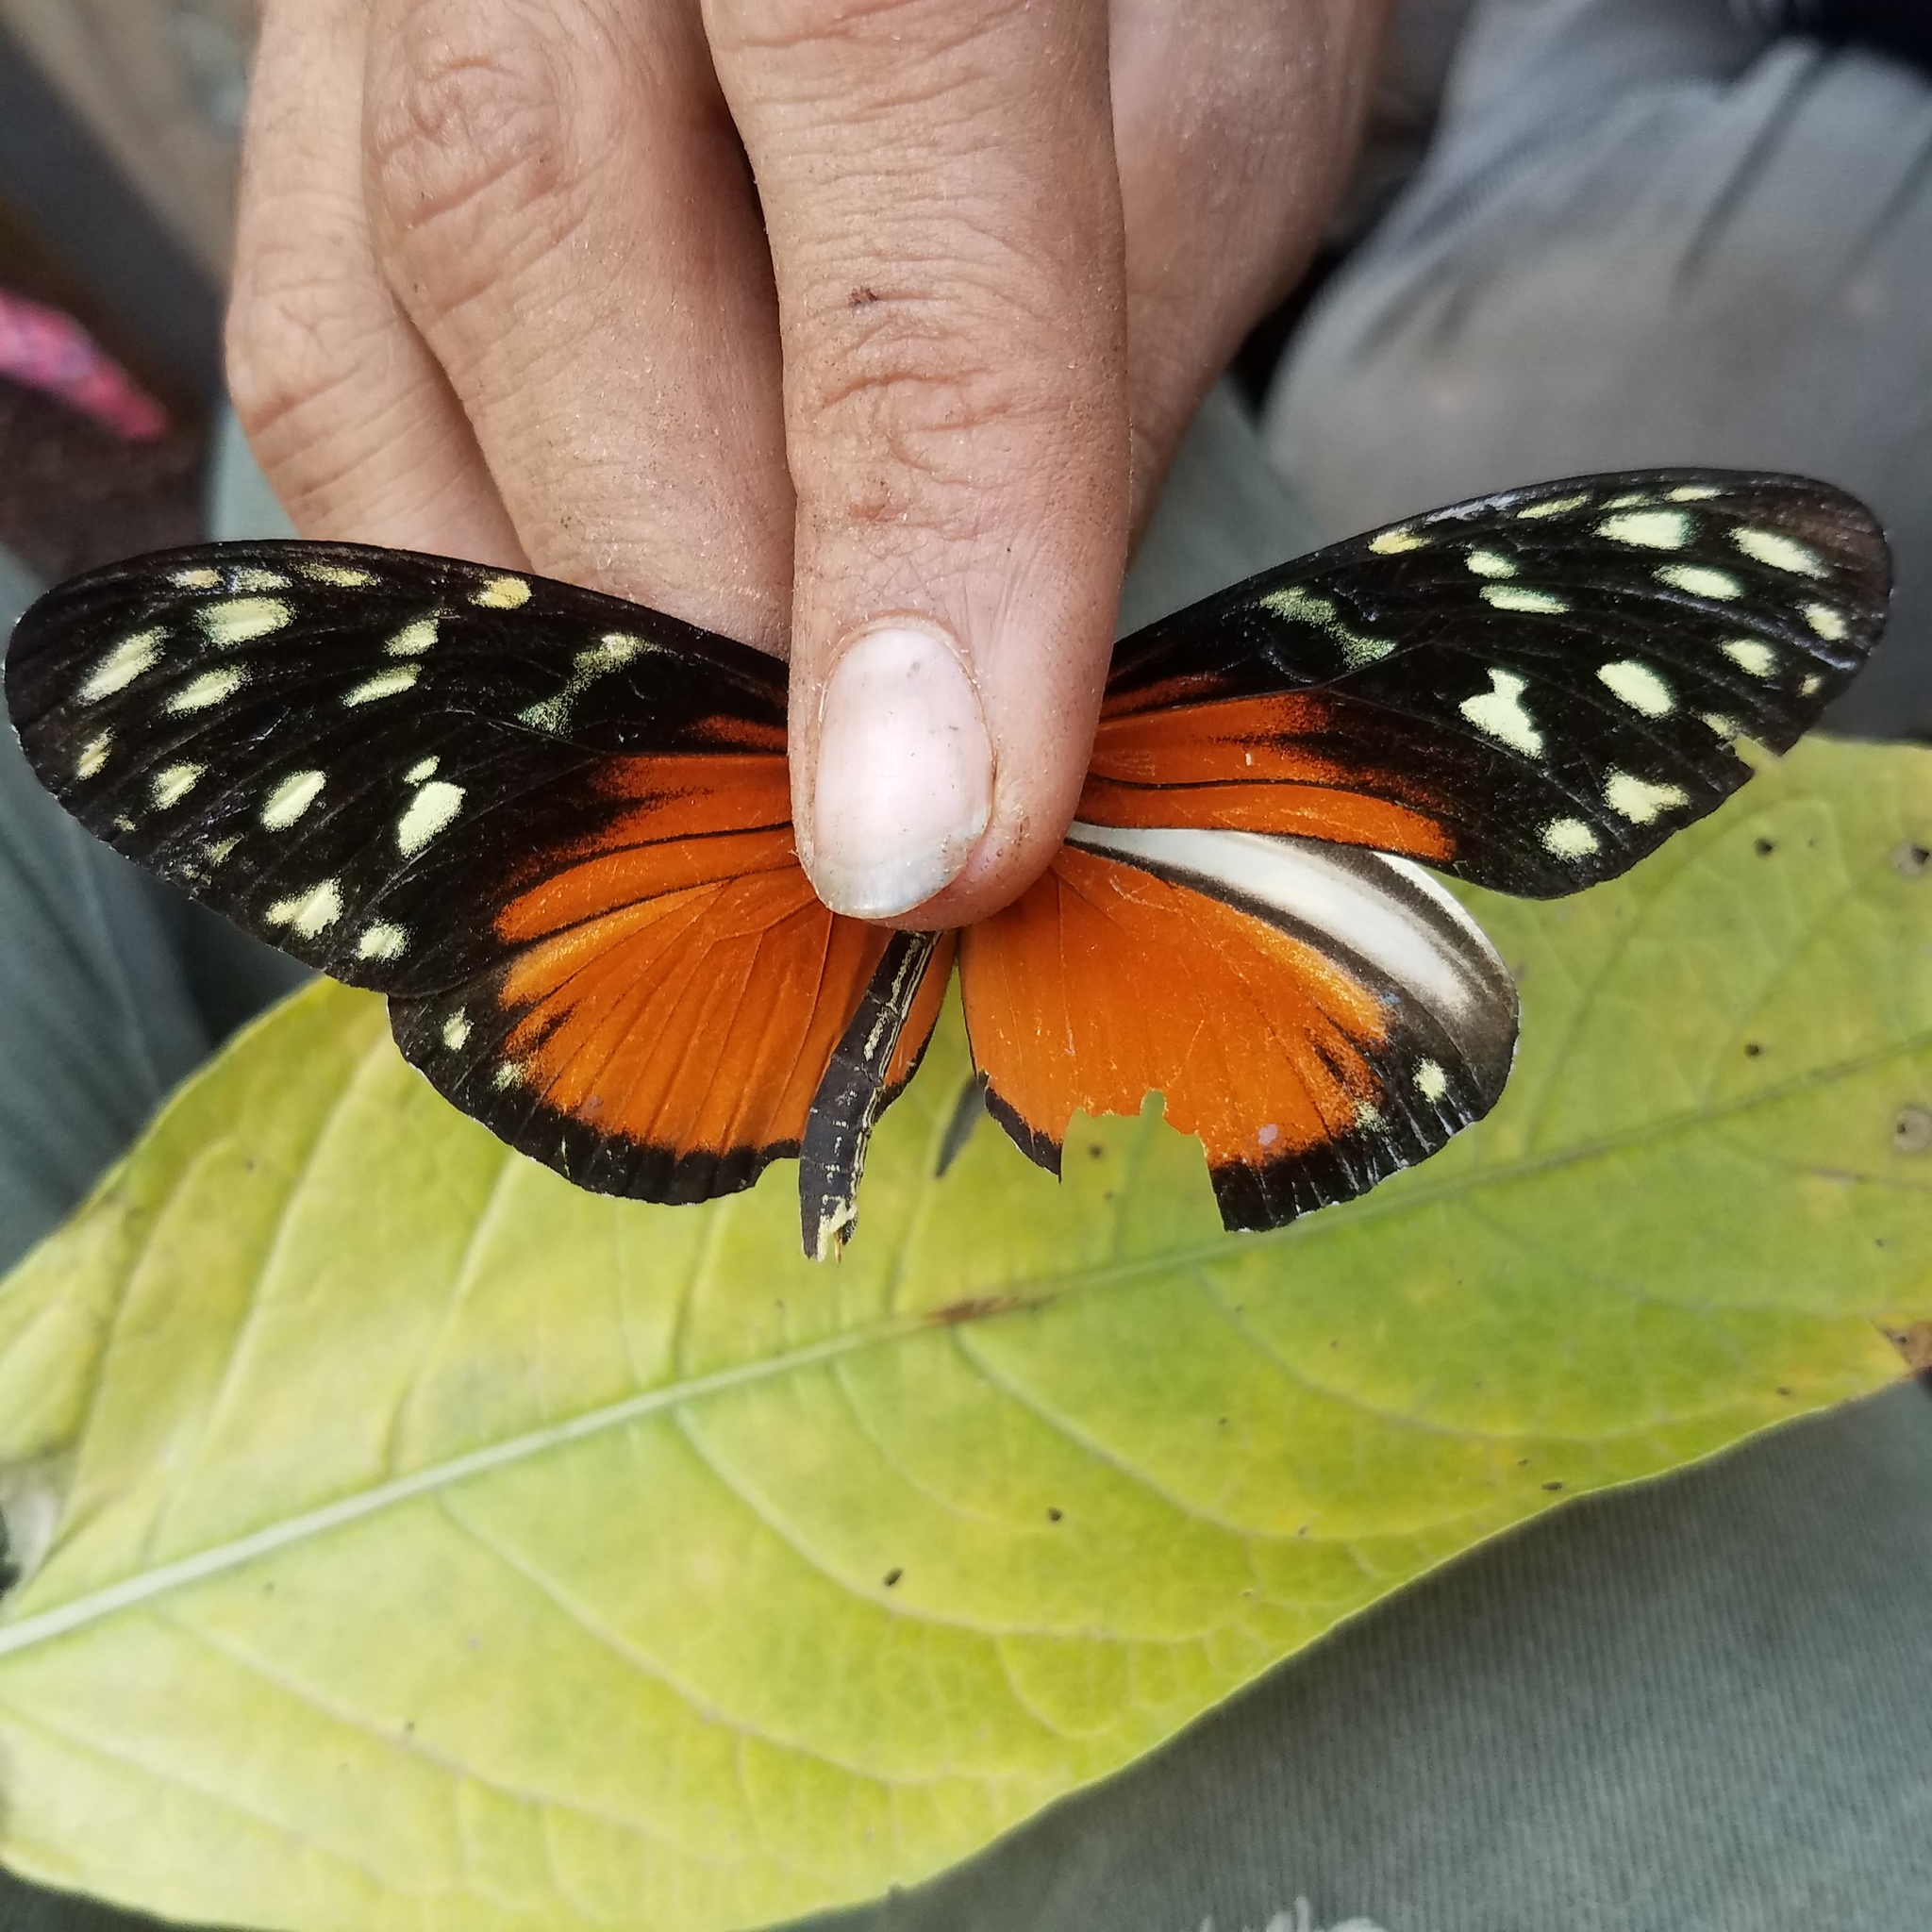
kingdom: Animalia
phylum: Arthropoda
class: Insecta
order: Lepidoptera
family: Nymphalidae
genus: Heliconius
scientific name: Heliconius hecale
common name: Tiger longwing
